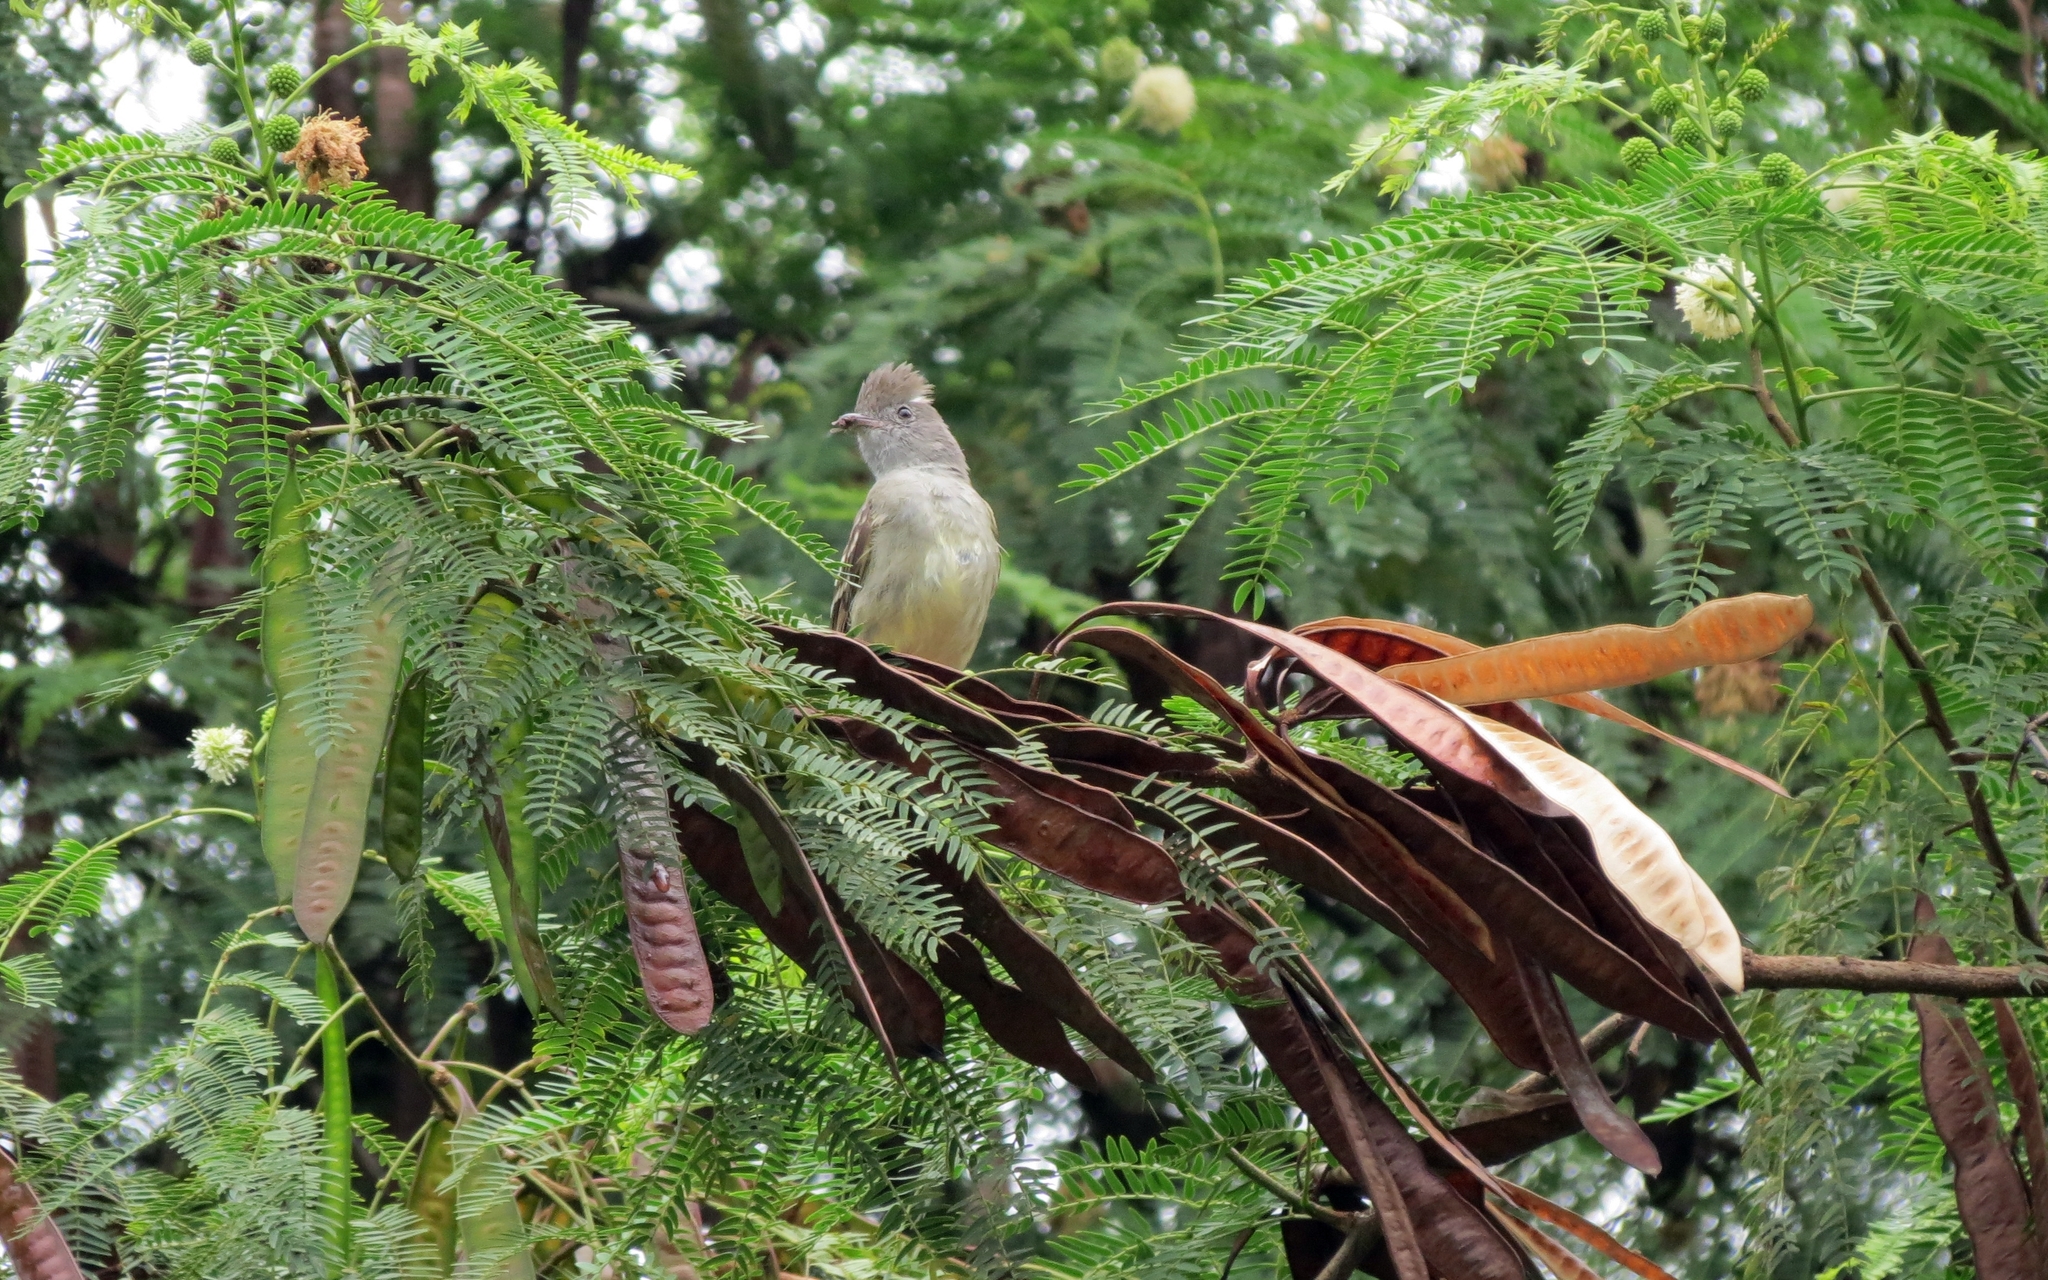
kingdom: Animalia
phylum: Chordata
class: Aves
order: Passeriformes
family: Tyrannidae
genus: Elaenia
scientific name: Elaenia flavogaster
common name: Yellow-bellied elaenia
